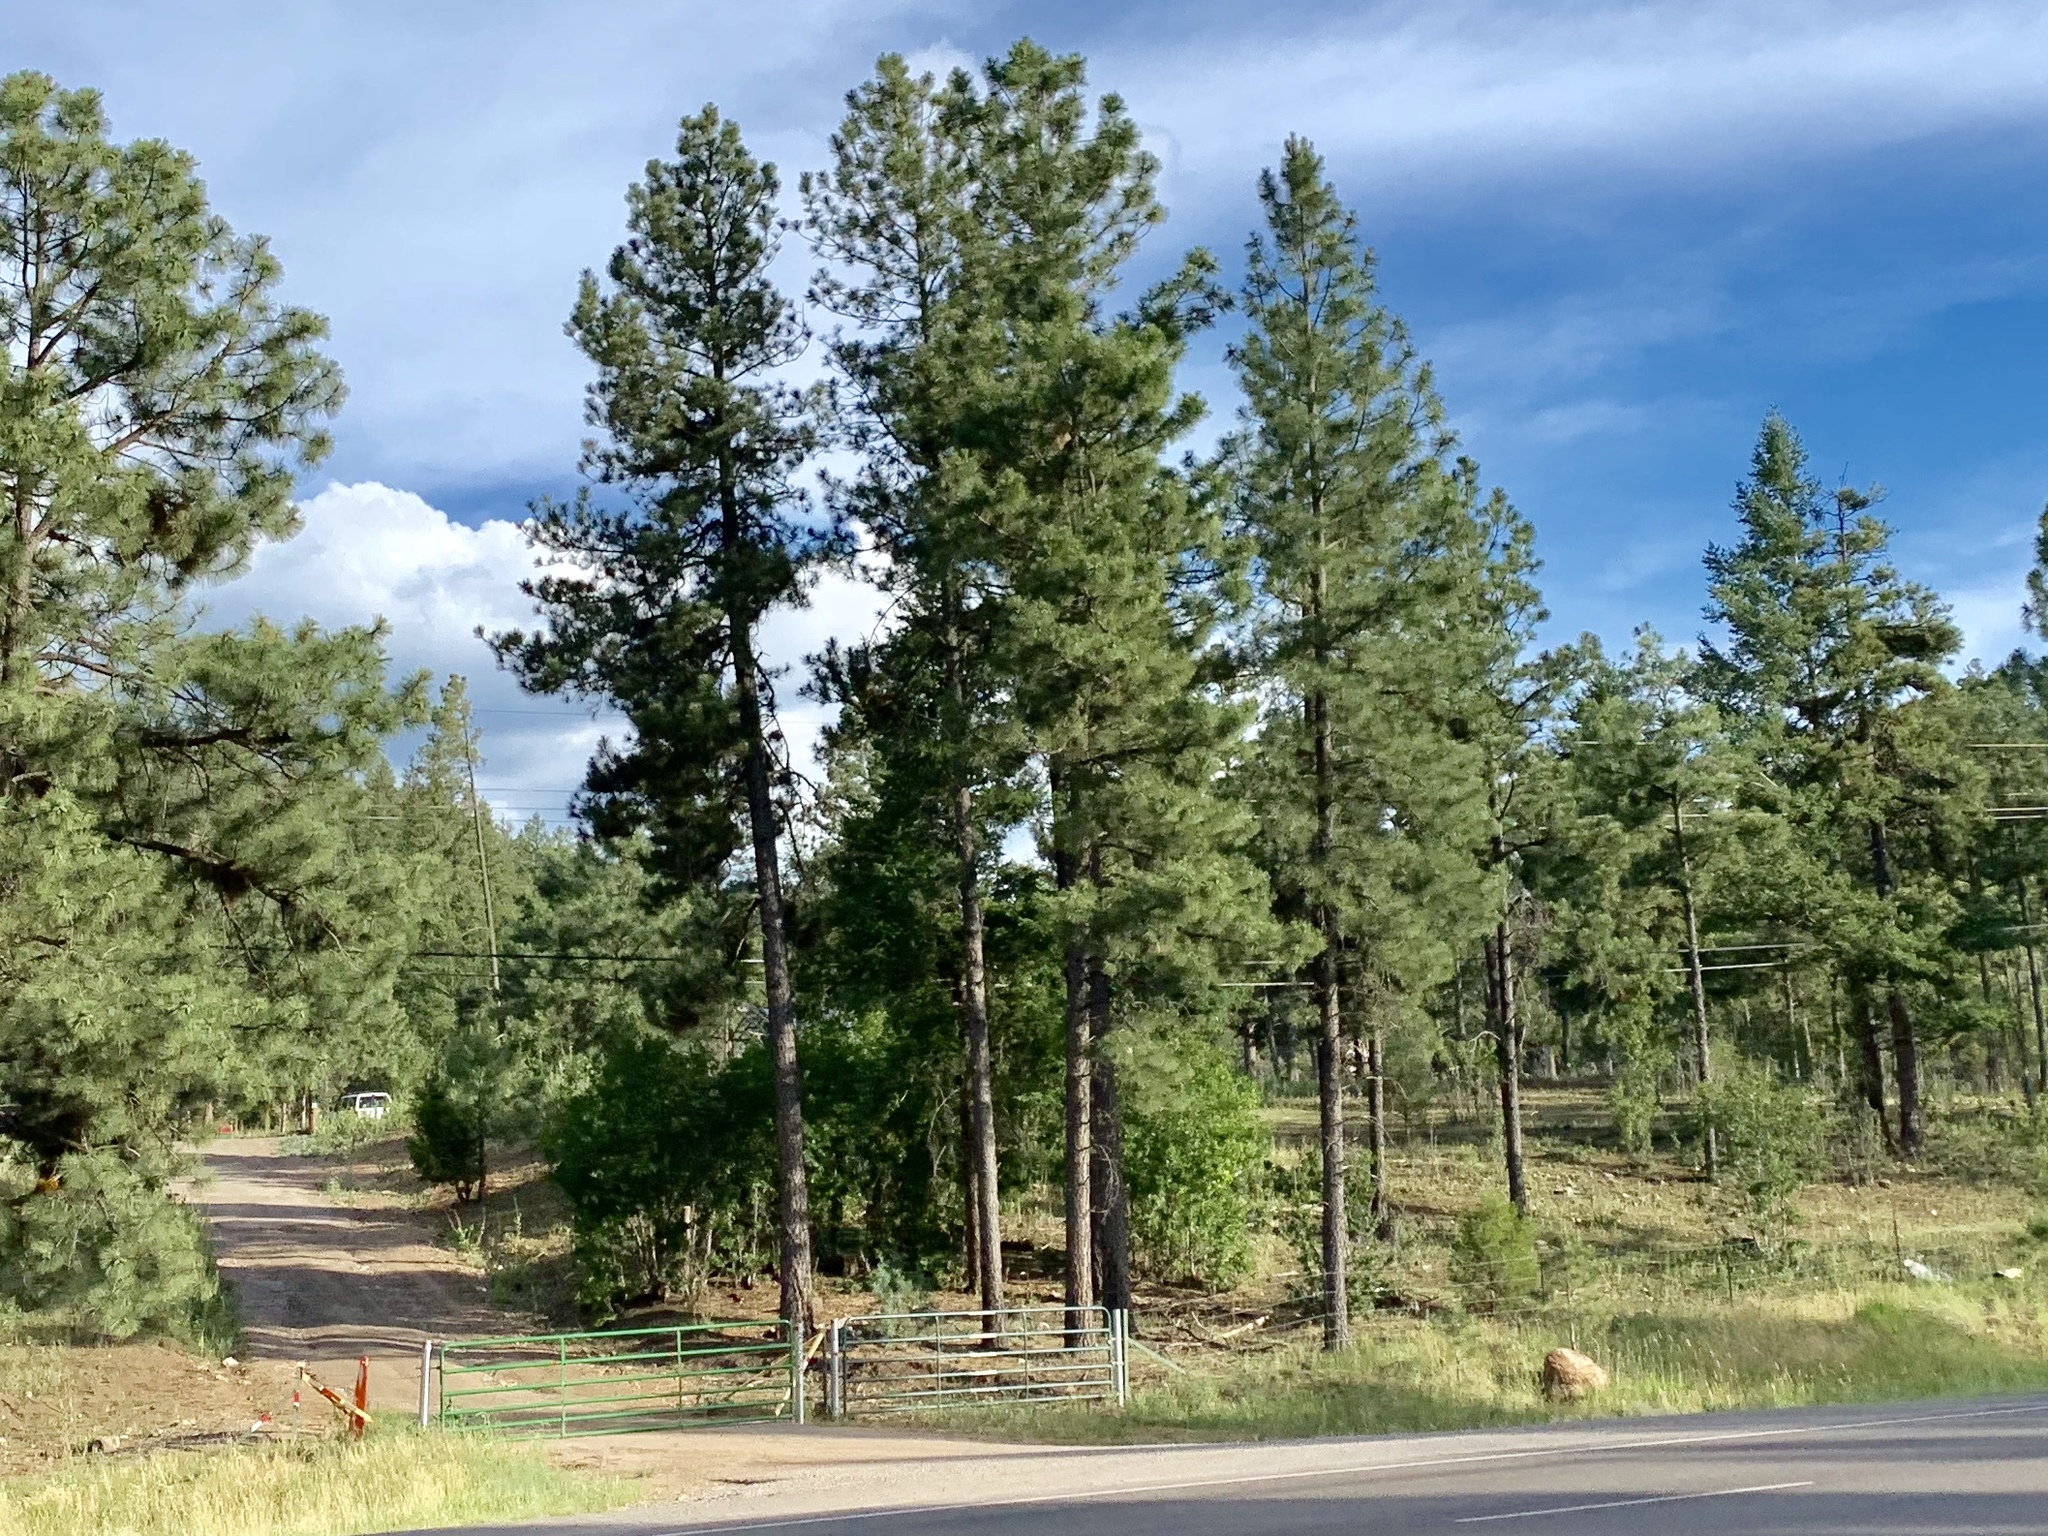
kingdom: Plantae
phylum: Tracheophyta
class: Pinopsida
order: Pinales
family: Pinaceae
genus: Pinus
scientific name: Pinus ponderosa
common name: Western yellow-pine
